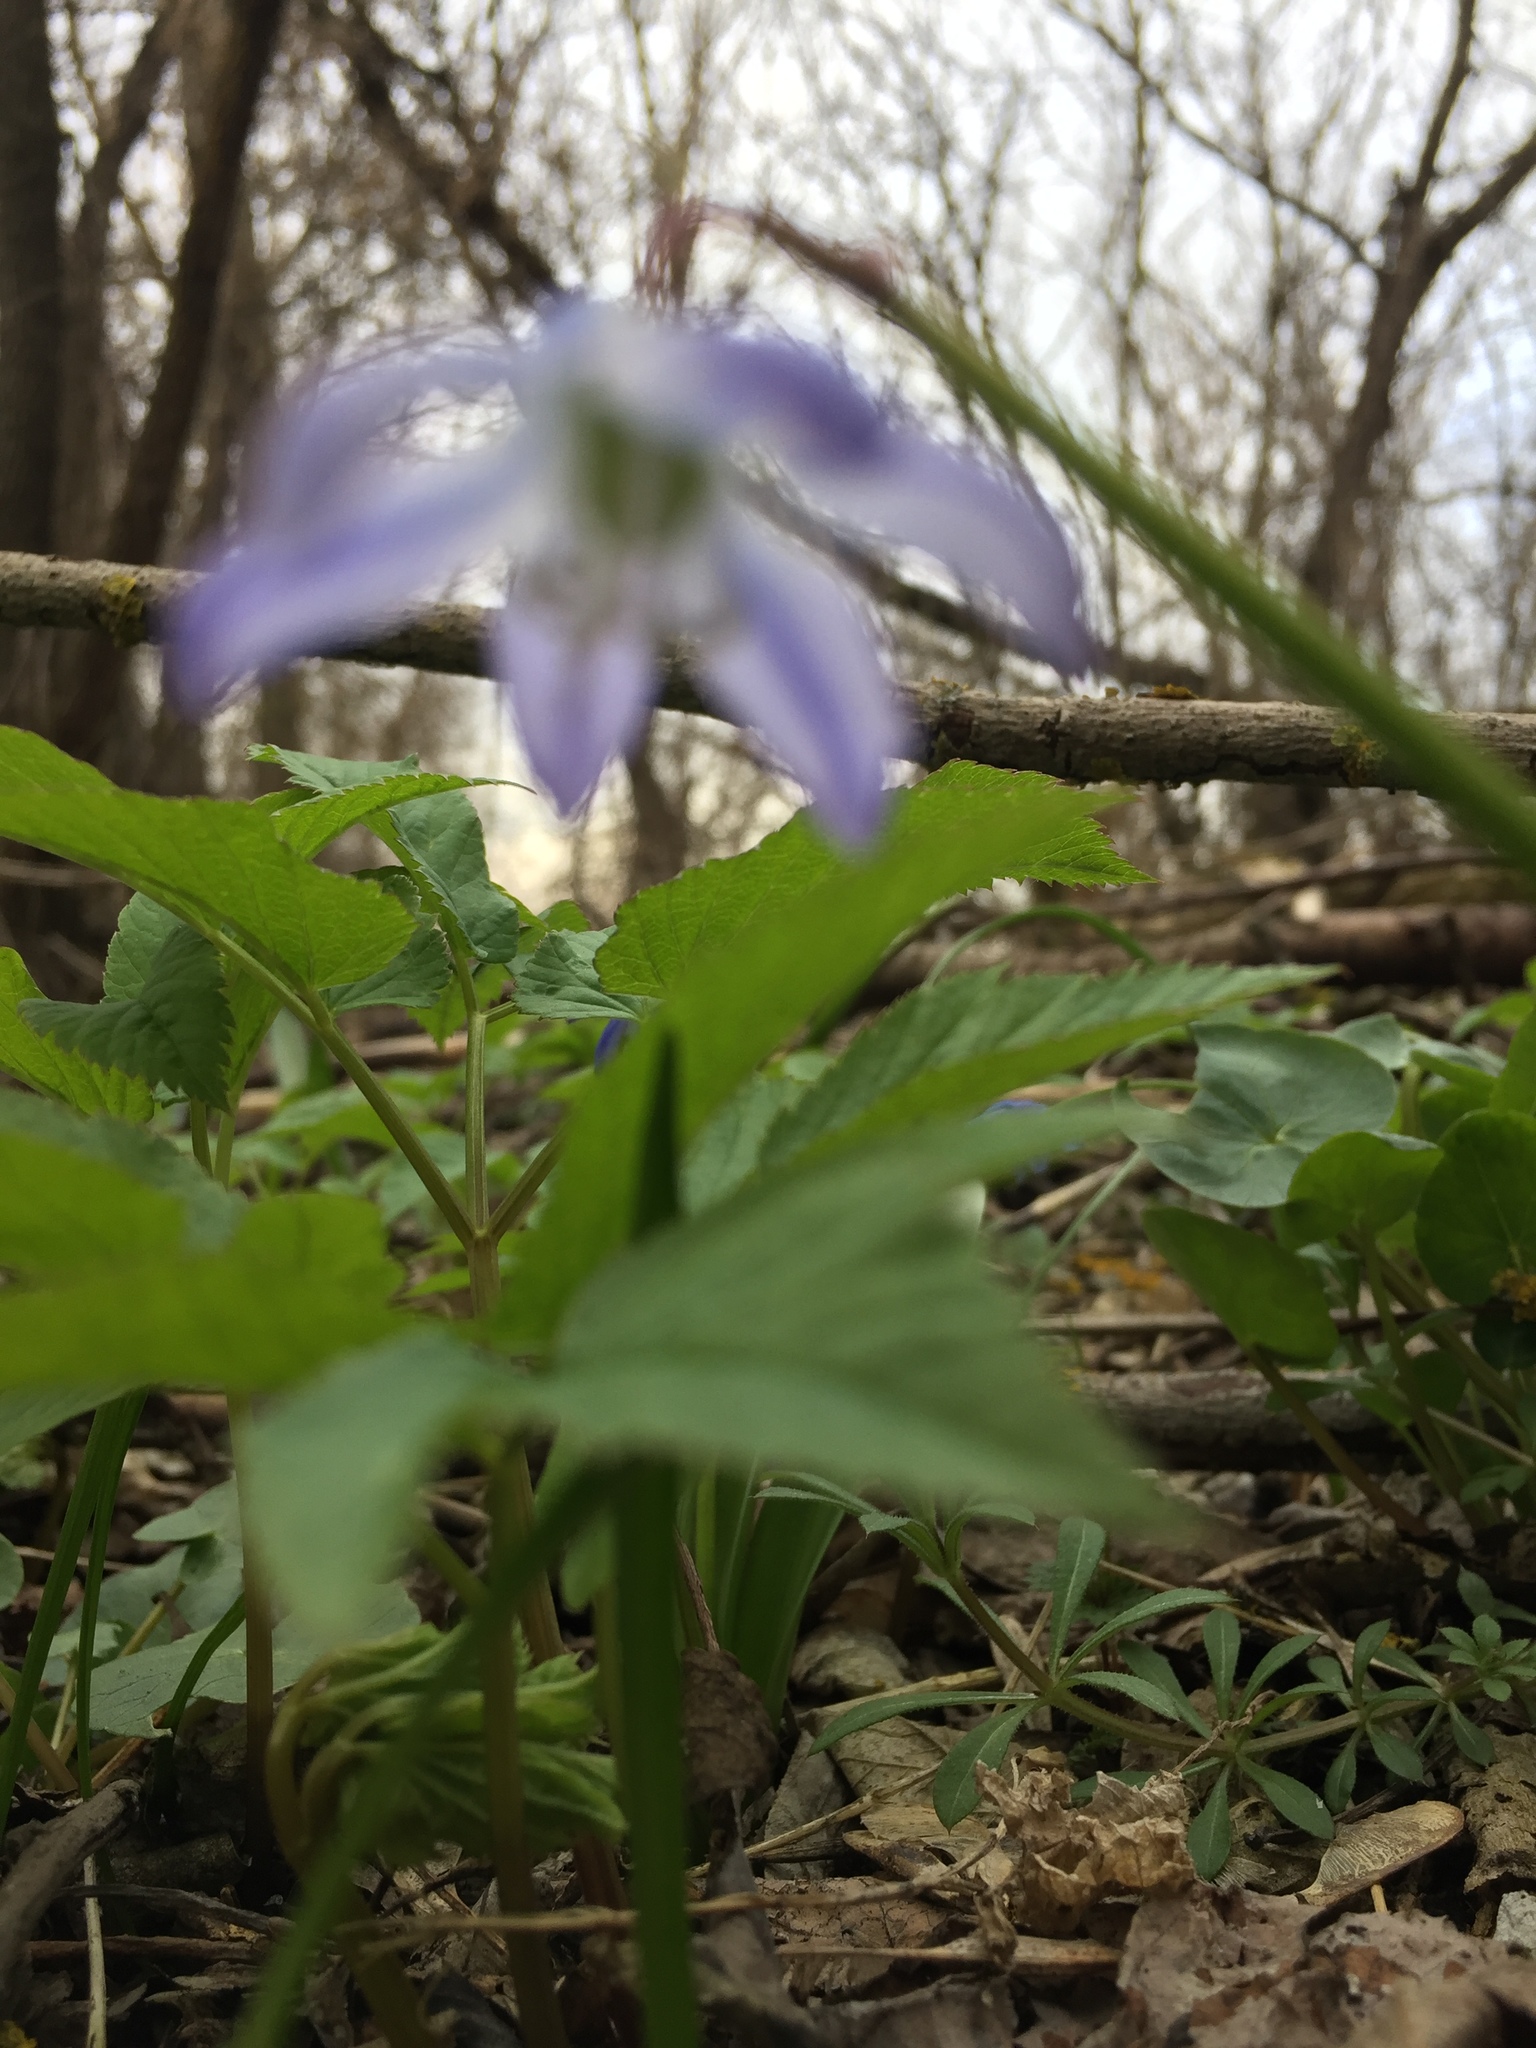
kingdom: Plantae
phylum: Tracheophyta
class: Liliopsida
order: Asparagales
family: Asparagaceae
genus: Scilla
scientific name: Scilla siberica
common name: Siberian squill
